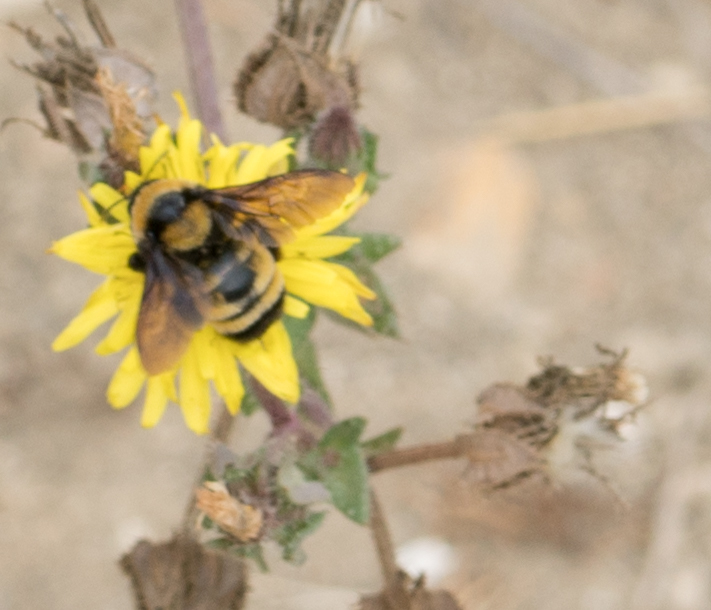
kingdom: Animalia
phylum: Arthropoda
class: Insecta
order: Hymenoptera
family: Apidae
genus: Bombus
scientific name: Bombus sonorus
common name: Sonoran bumble bee
